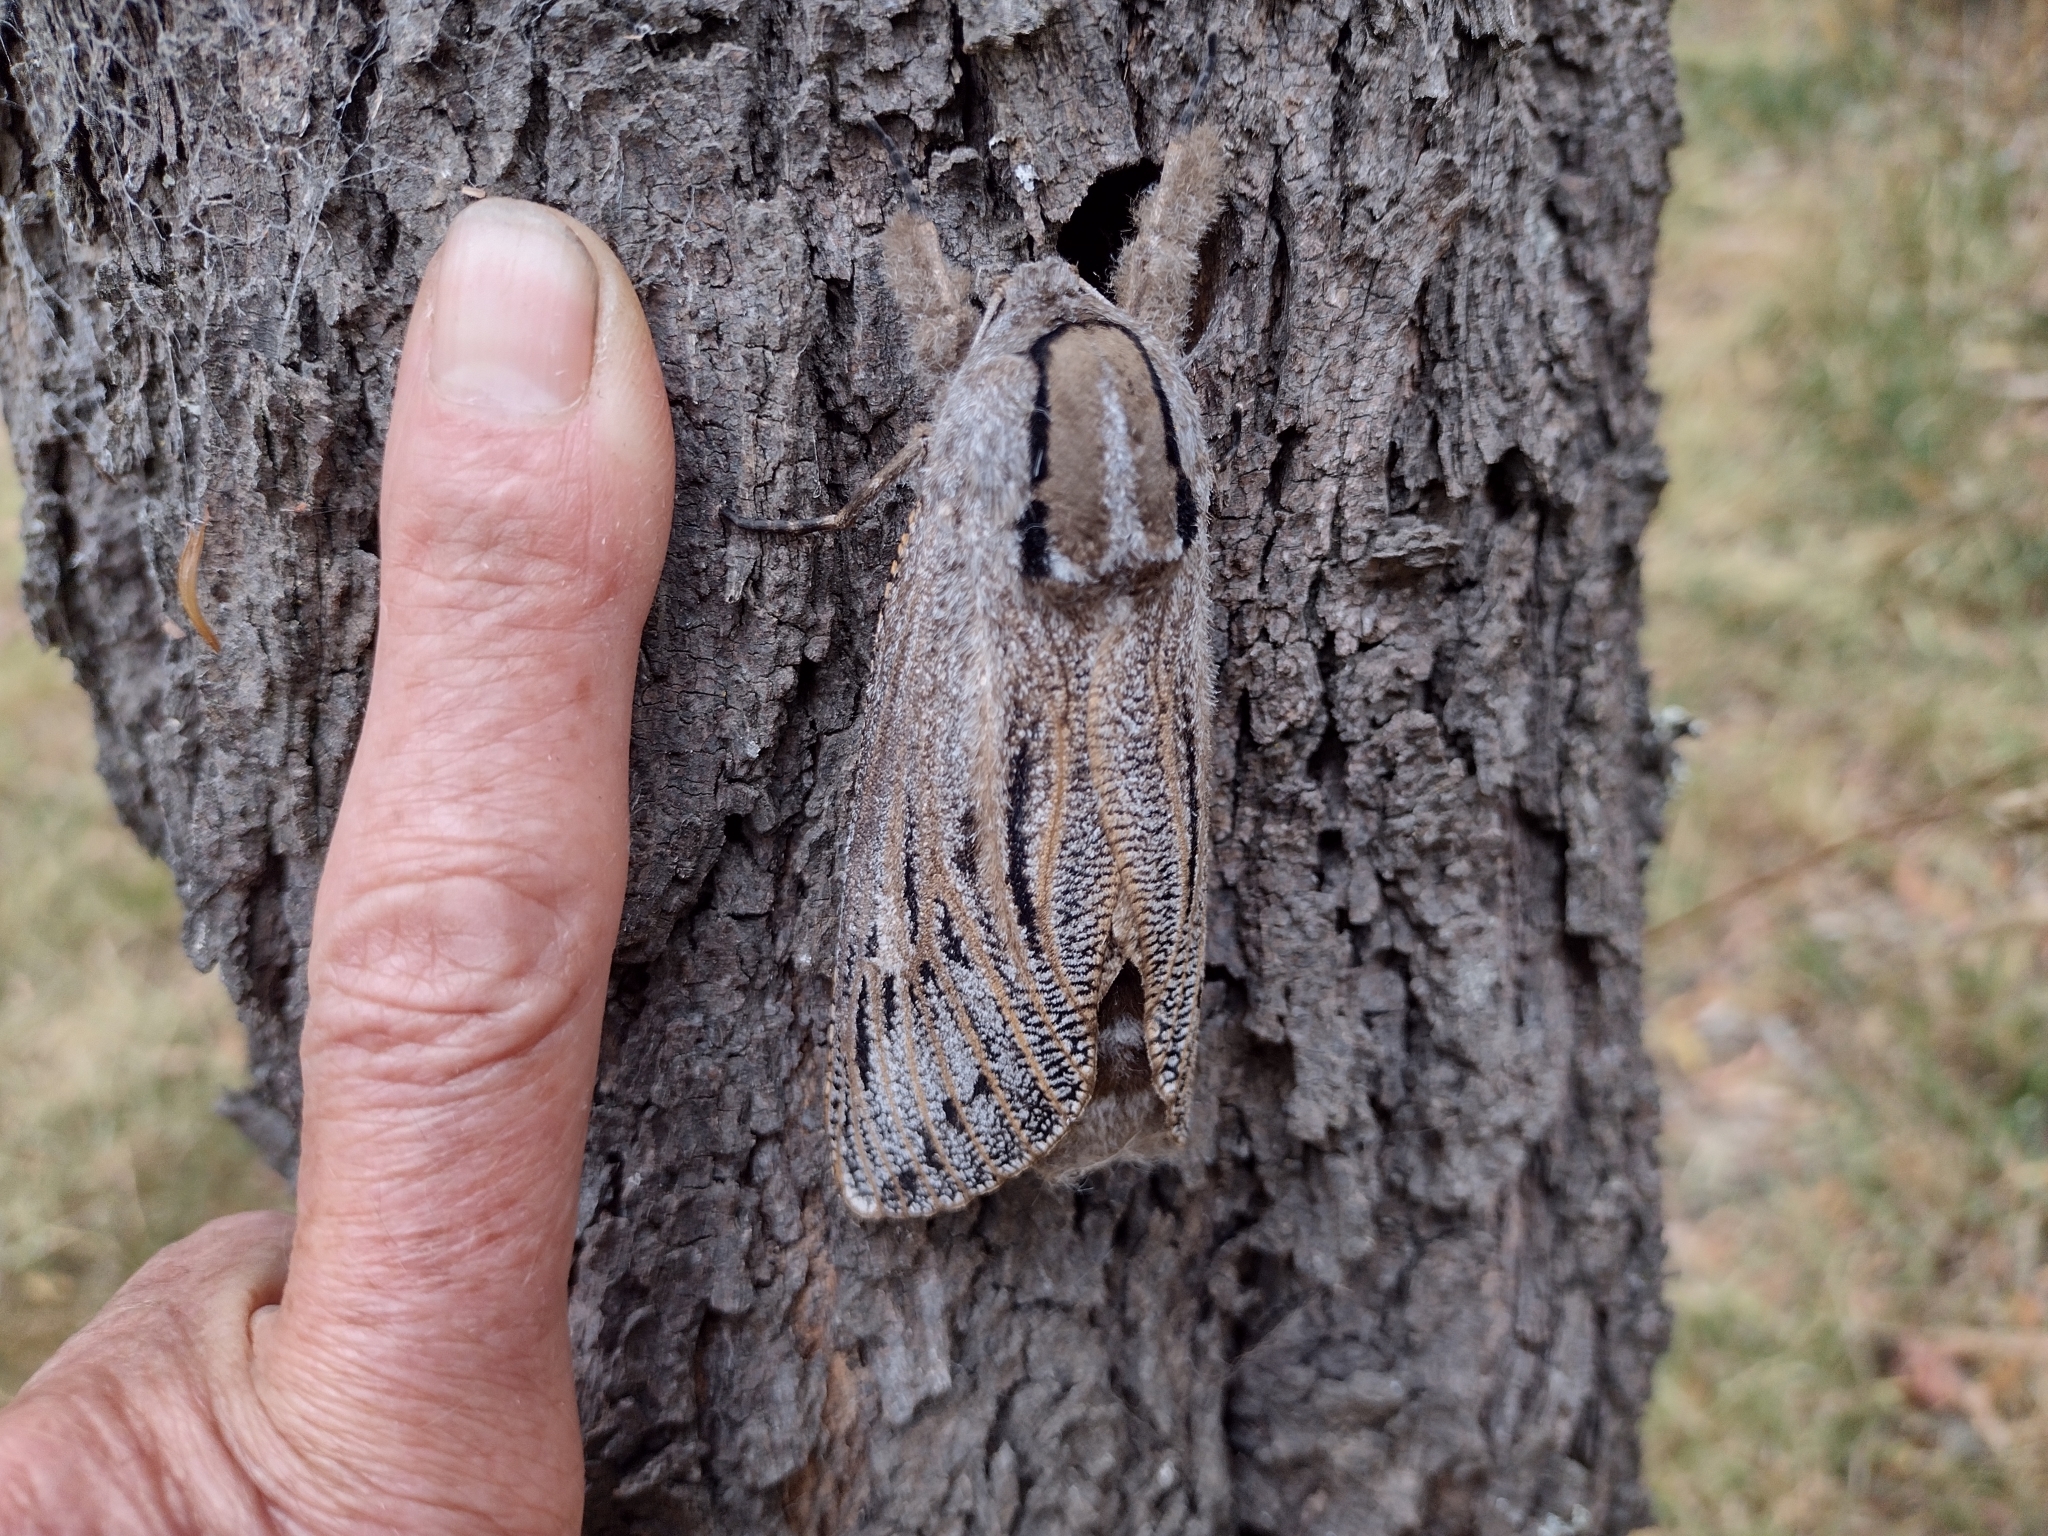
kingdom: Animalia
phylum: Arthropoda
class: Insecta
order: Lepidoptera
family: Cossidae
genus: Endoxyla
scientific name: Endoxyla liturata
